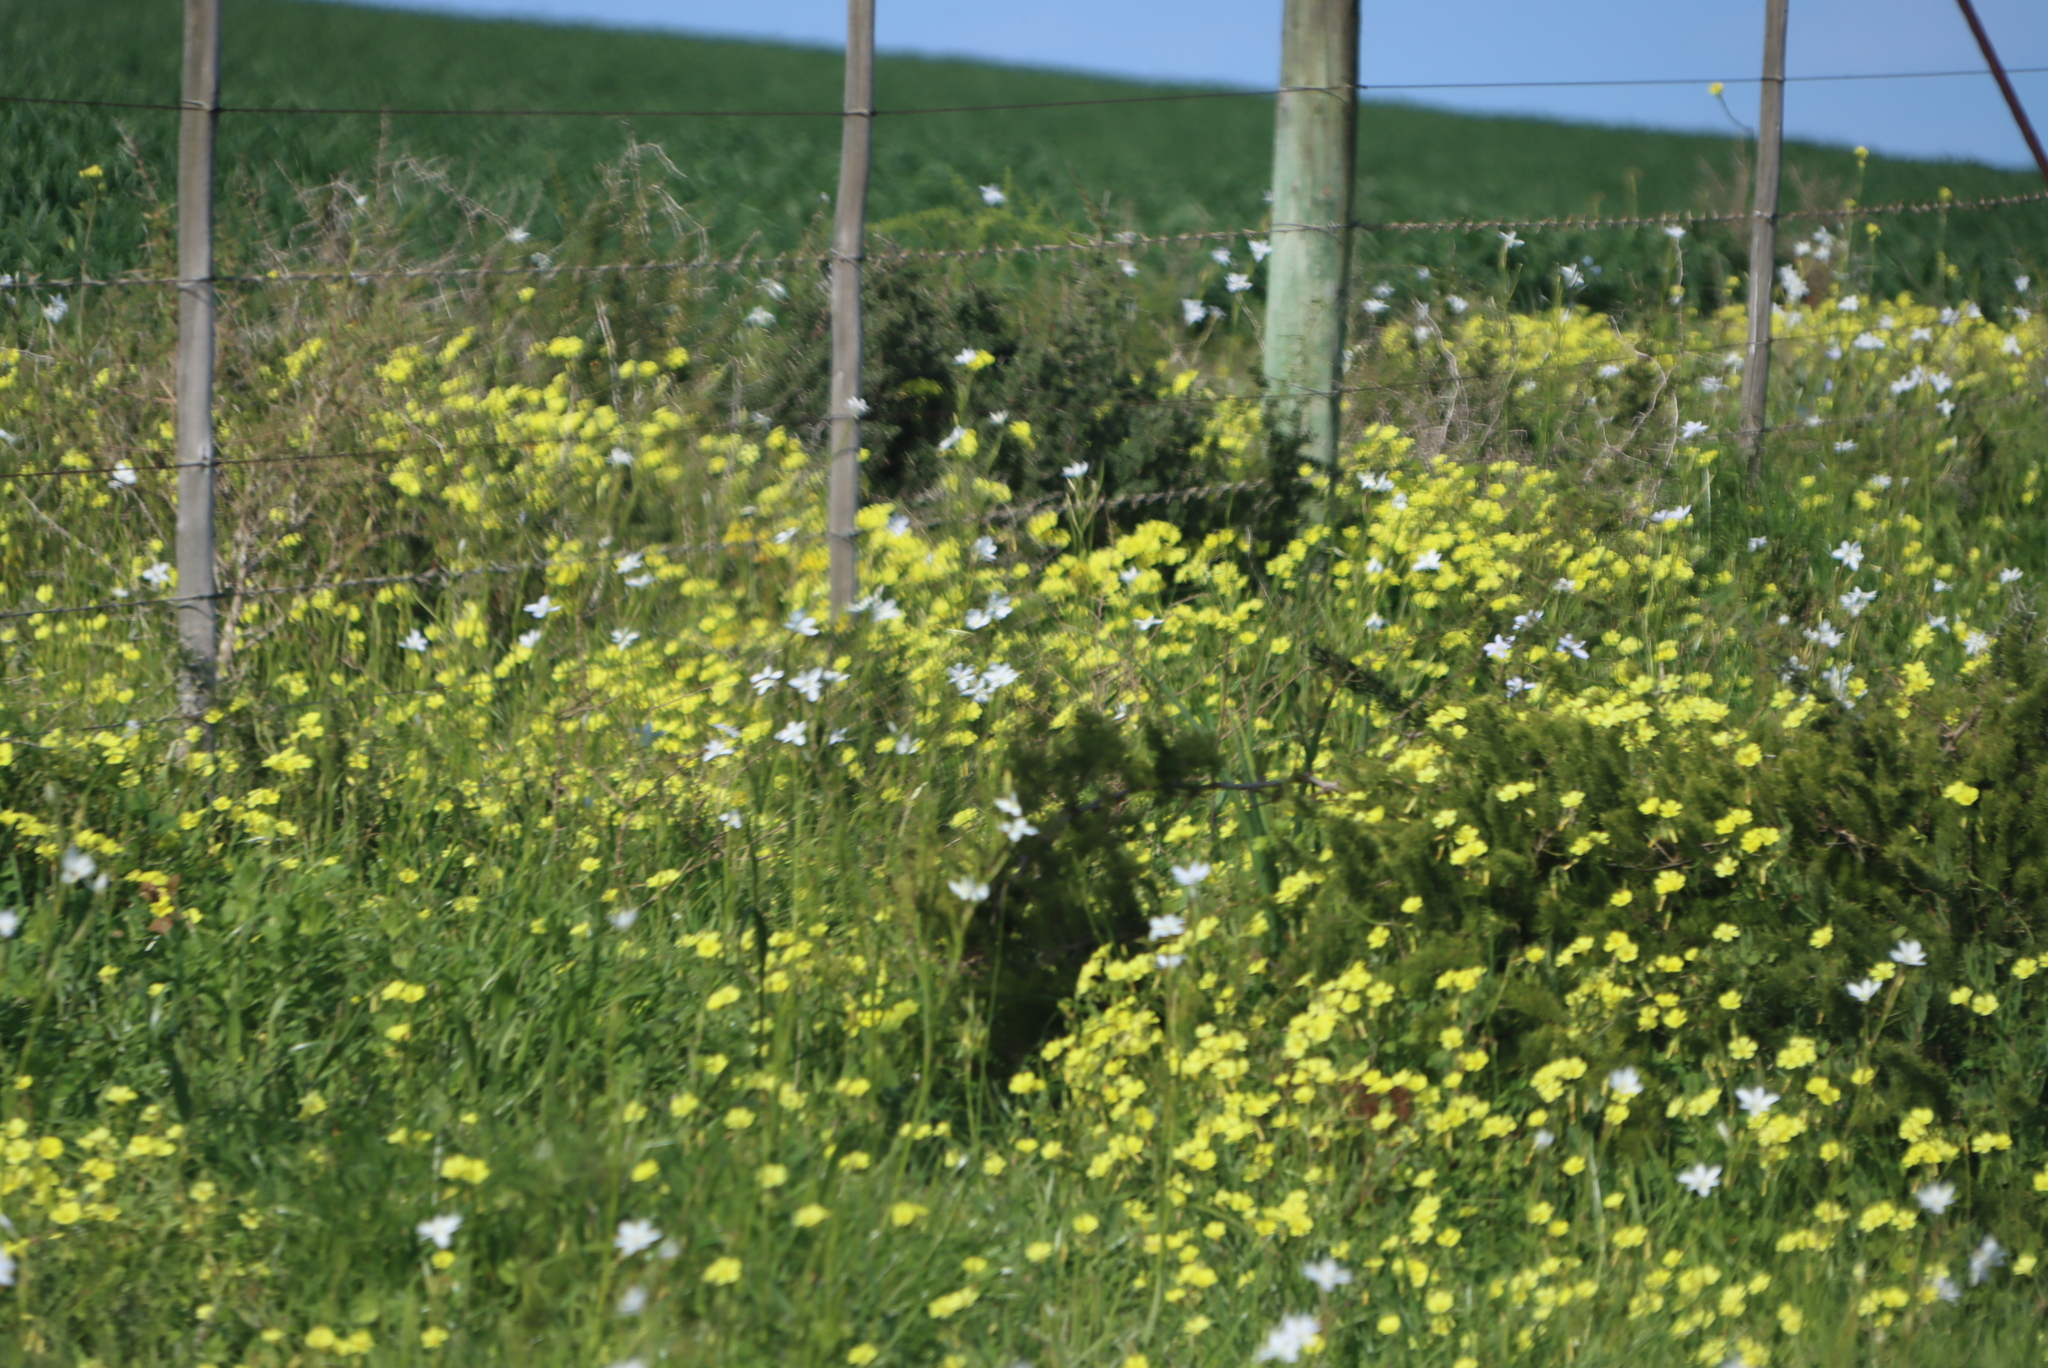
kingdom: Plantae
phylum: Tracheophyta
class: Magnoliopsida
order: Oxalidales
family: Oxalidaceae
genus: Oxalis
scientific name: Oxalis pes-caprae
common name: Bermuda-buttercup
